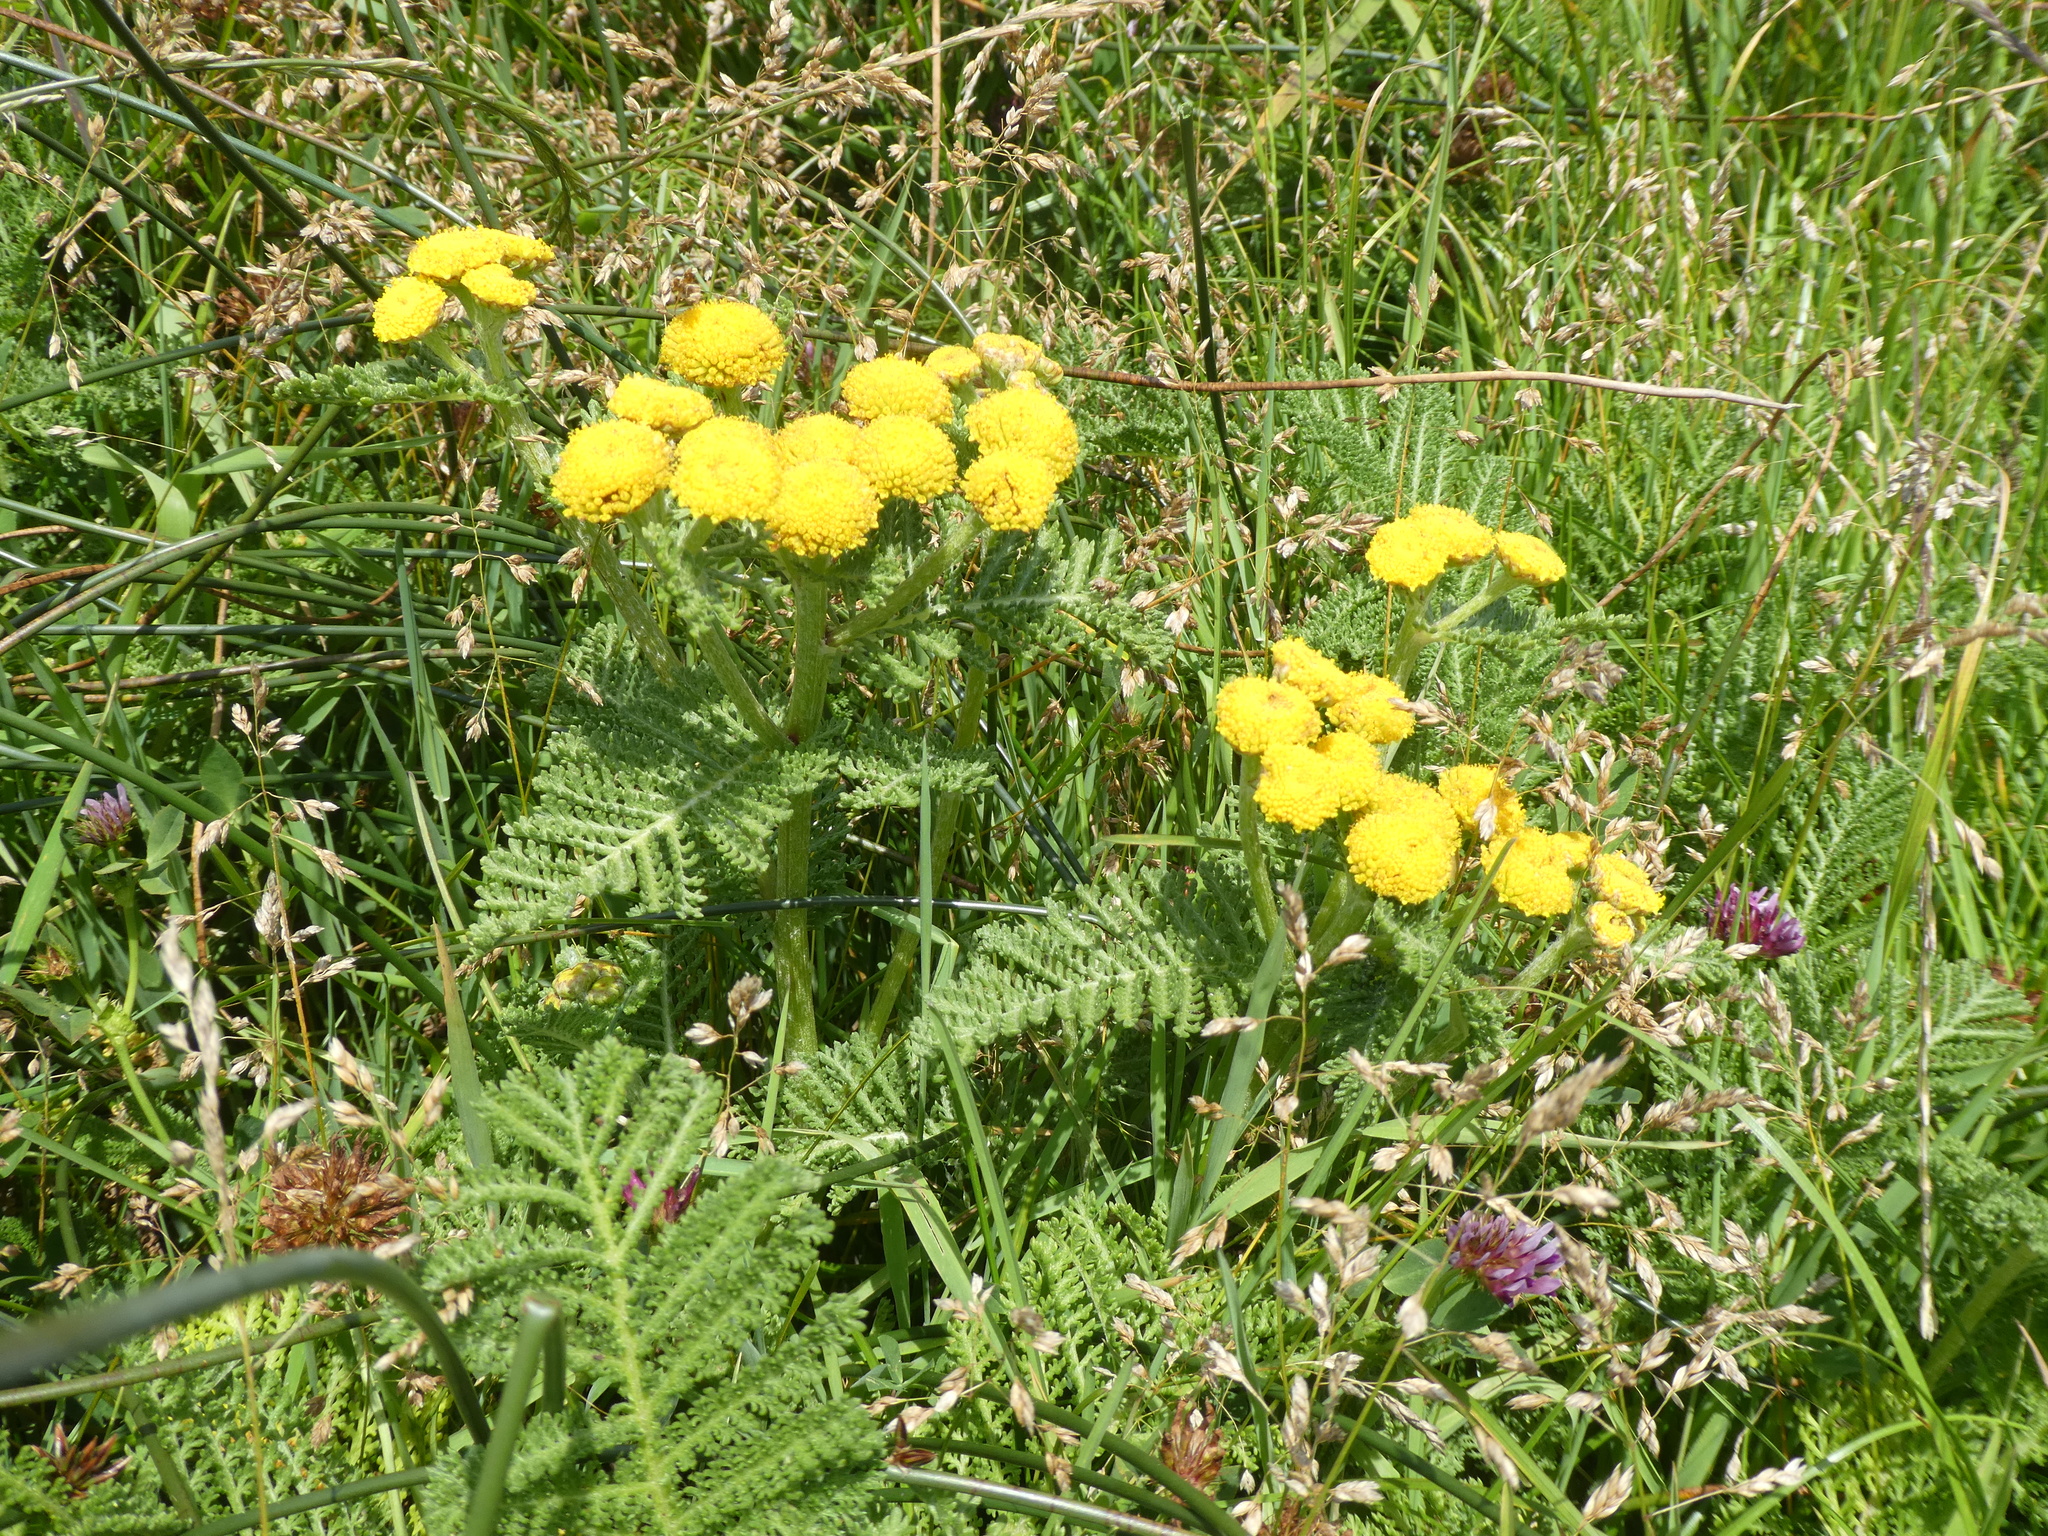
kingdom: Plantae
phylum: Tracheophyta
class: Magnoliopsida
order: Asterales
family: Asteraceae
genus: Tanacetum
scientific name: Tanacetum bipinnatum
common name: Dwarf tansy
